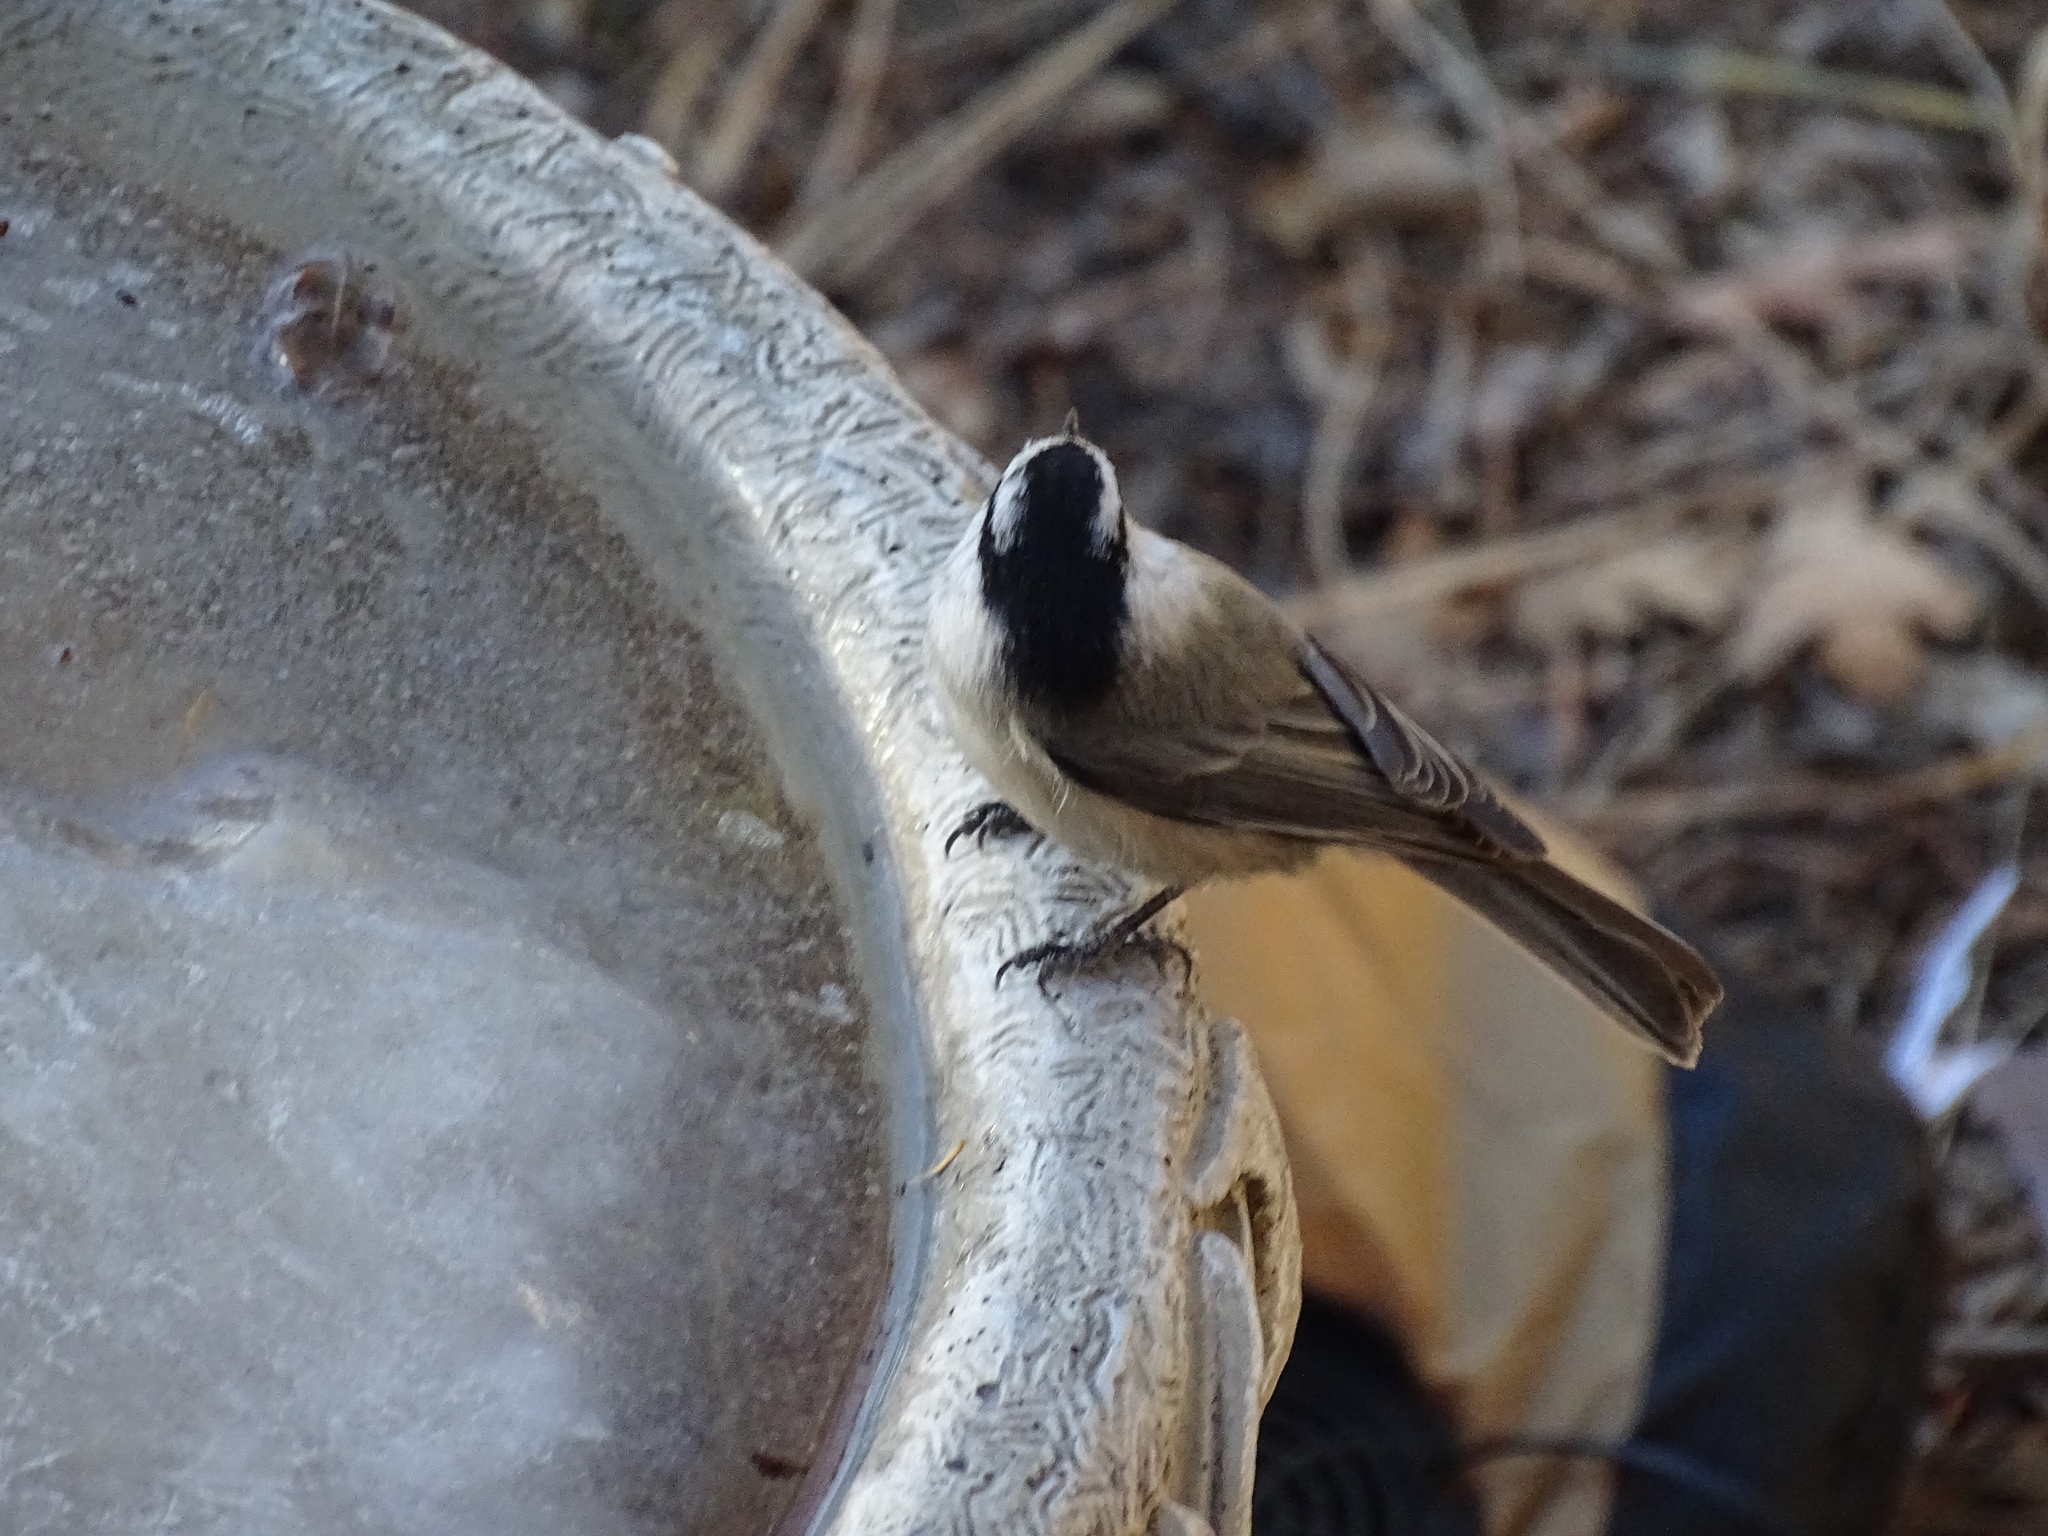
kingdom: Animalia
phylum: Chordata
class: Aves
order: Passeriformes
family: Paridae
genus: Poecile
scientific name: Poecile gambeli
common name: Mountain chickadee
